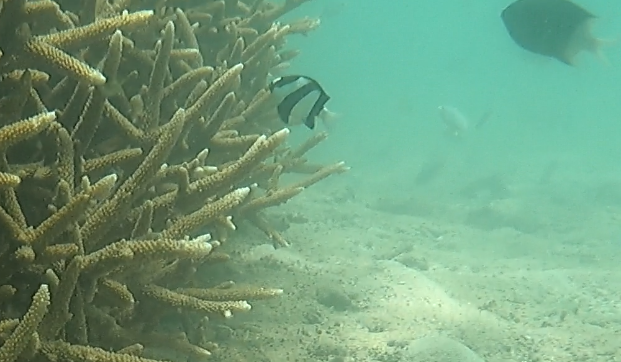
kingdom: Animalia
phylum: Chordata
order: Perciformes
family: Pomacentridae
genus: Dascyllus
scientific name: Dascyllus aruanus
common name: Humbug dascyllus
